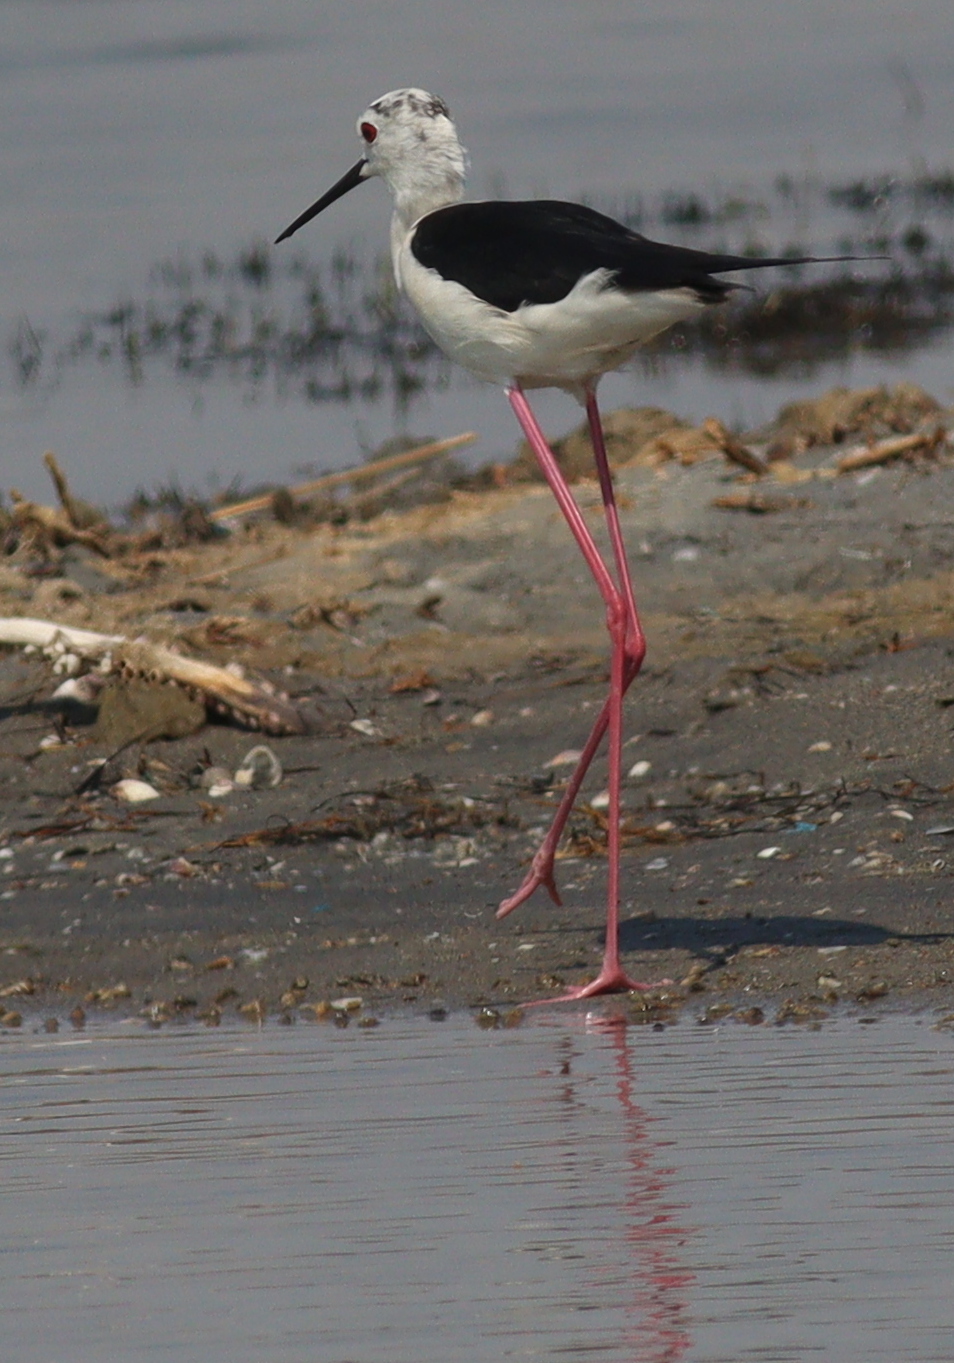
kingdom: Animalia
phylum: Chordata
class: Aves
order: Charadriiformes
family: Recurvirostridae
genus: Himantopus
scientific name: Himantopus himantopus
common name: Black-winged stilt
